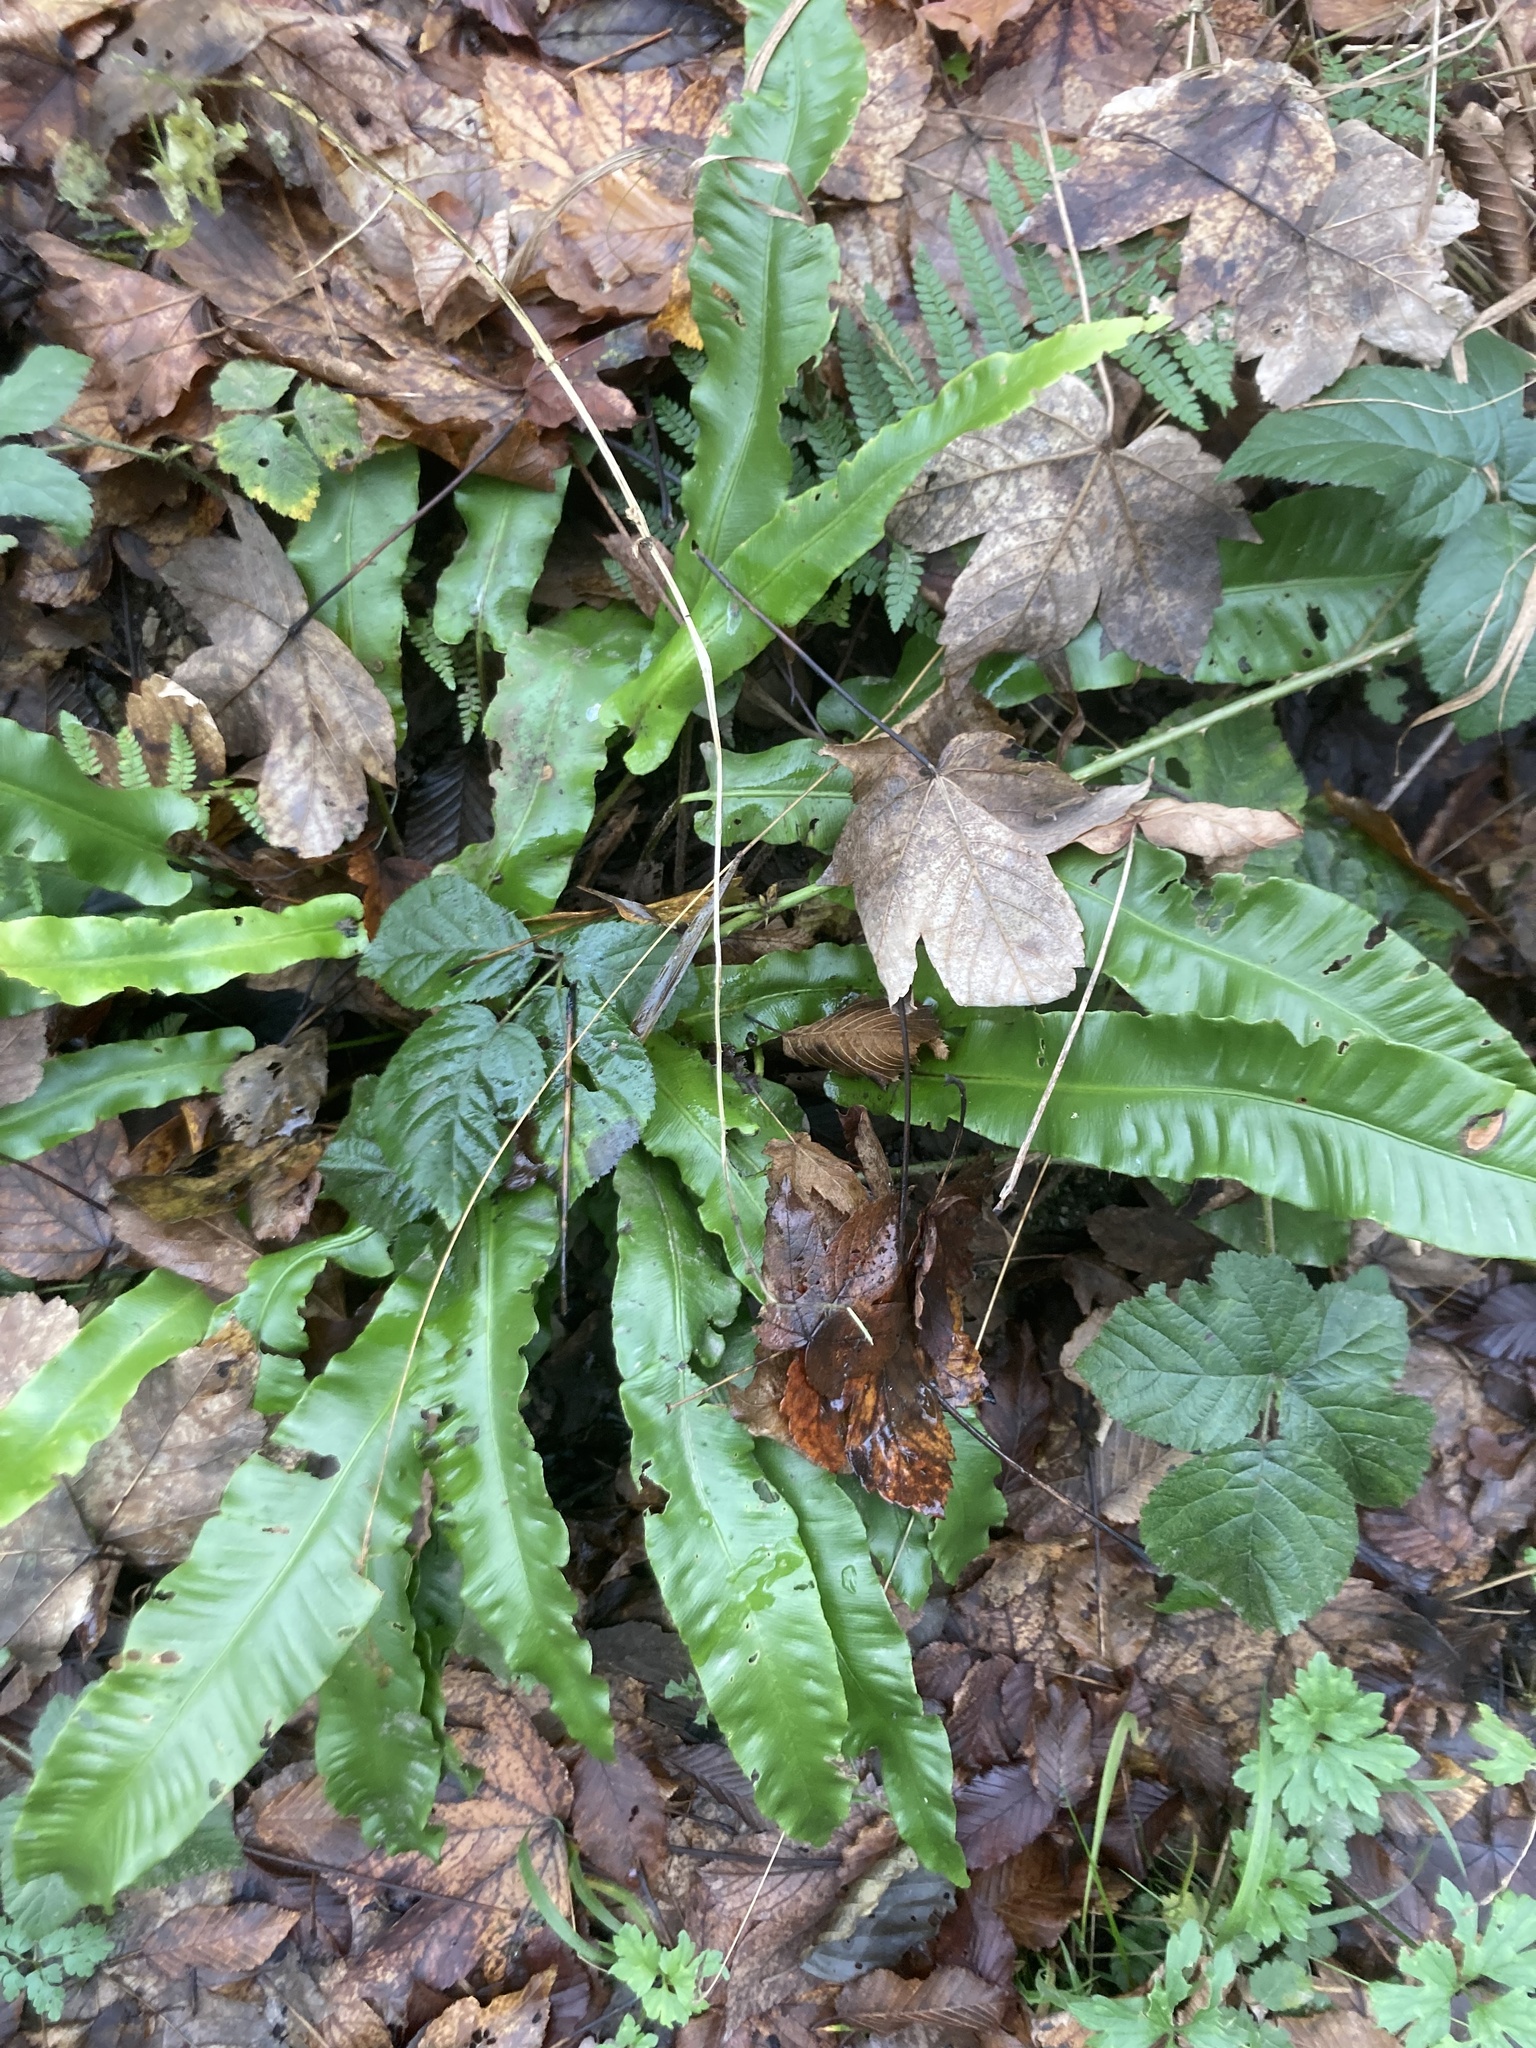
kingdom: Plantae
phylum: Tracheophyta
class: Polypodiopsida
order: Polypodiales
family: Aspleniaceae
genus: Asplenium
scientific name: Asplenium scolopendrium
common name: Hart's-tongue fern
